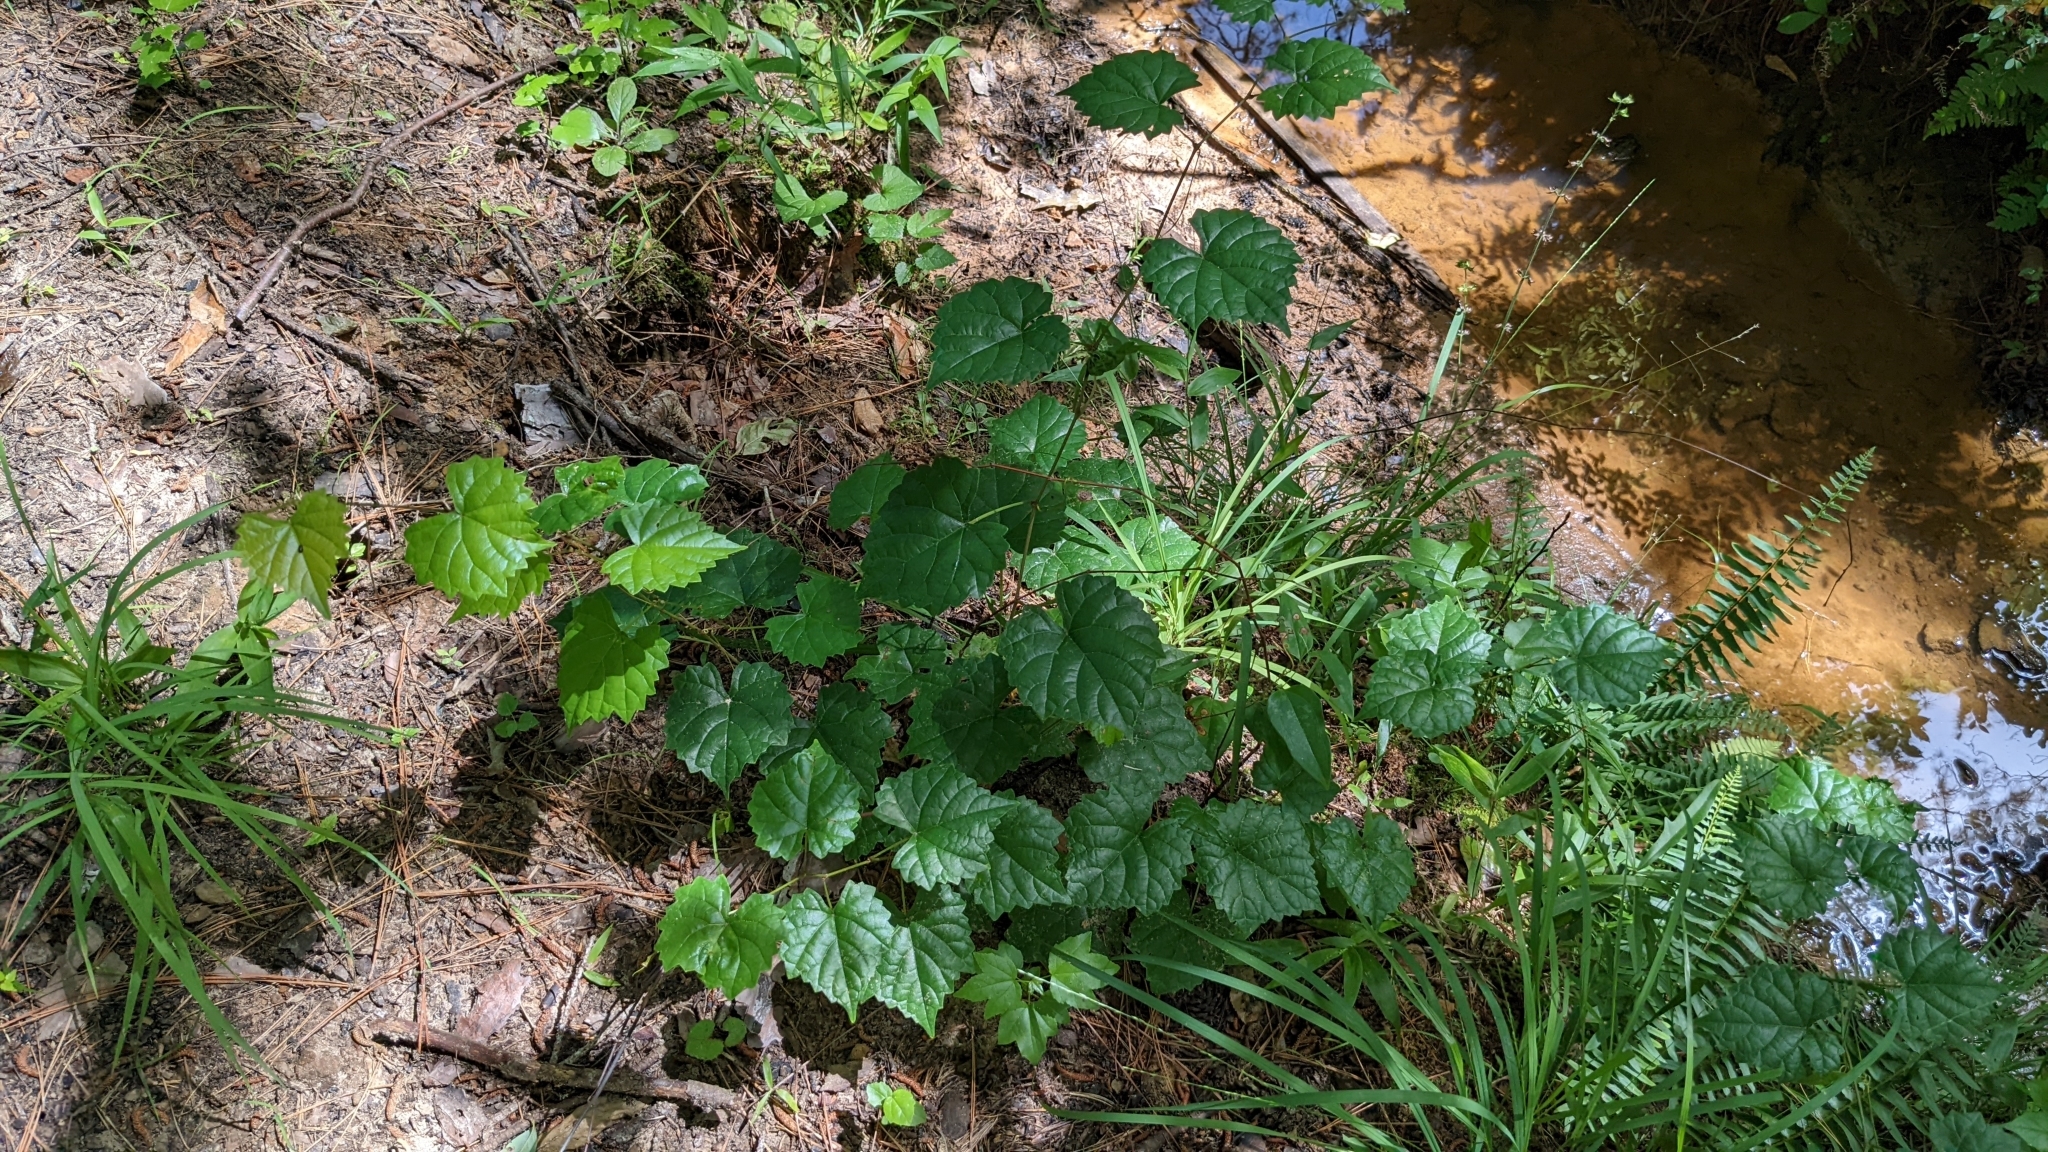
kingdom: Plantae
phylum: Tracheophyta
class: Magnoliopsida
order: Vitales
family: Vitaceae
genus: Vitis
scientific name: Vitis rotundifolia
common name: Muscadine grape
